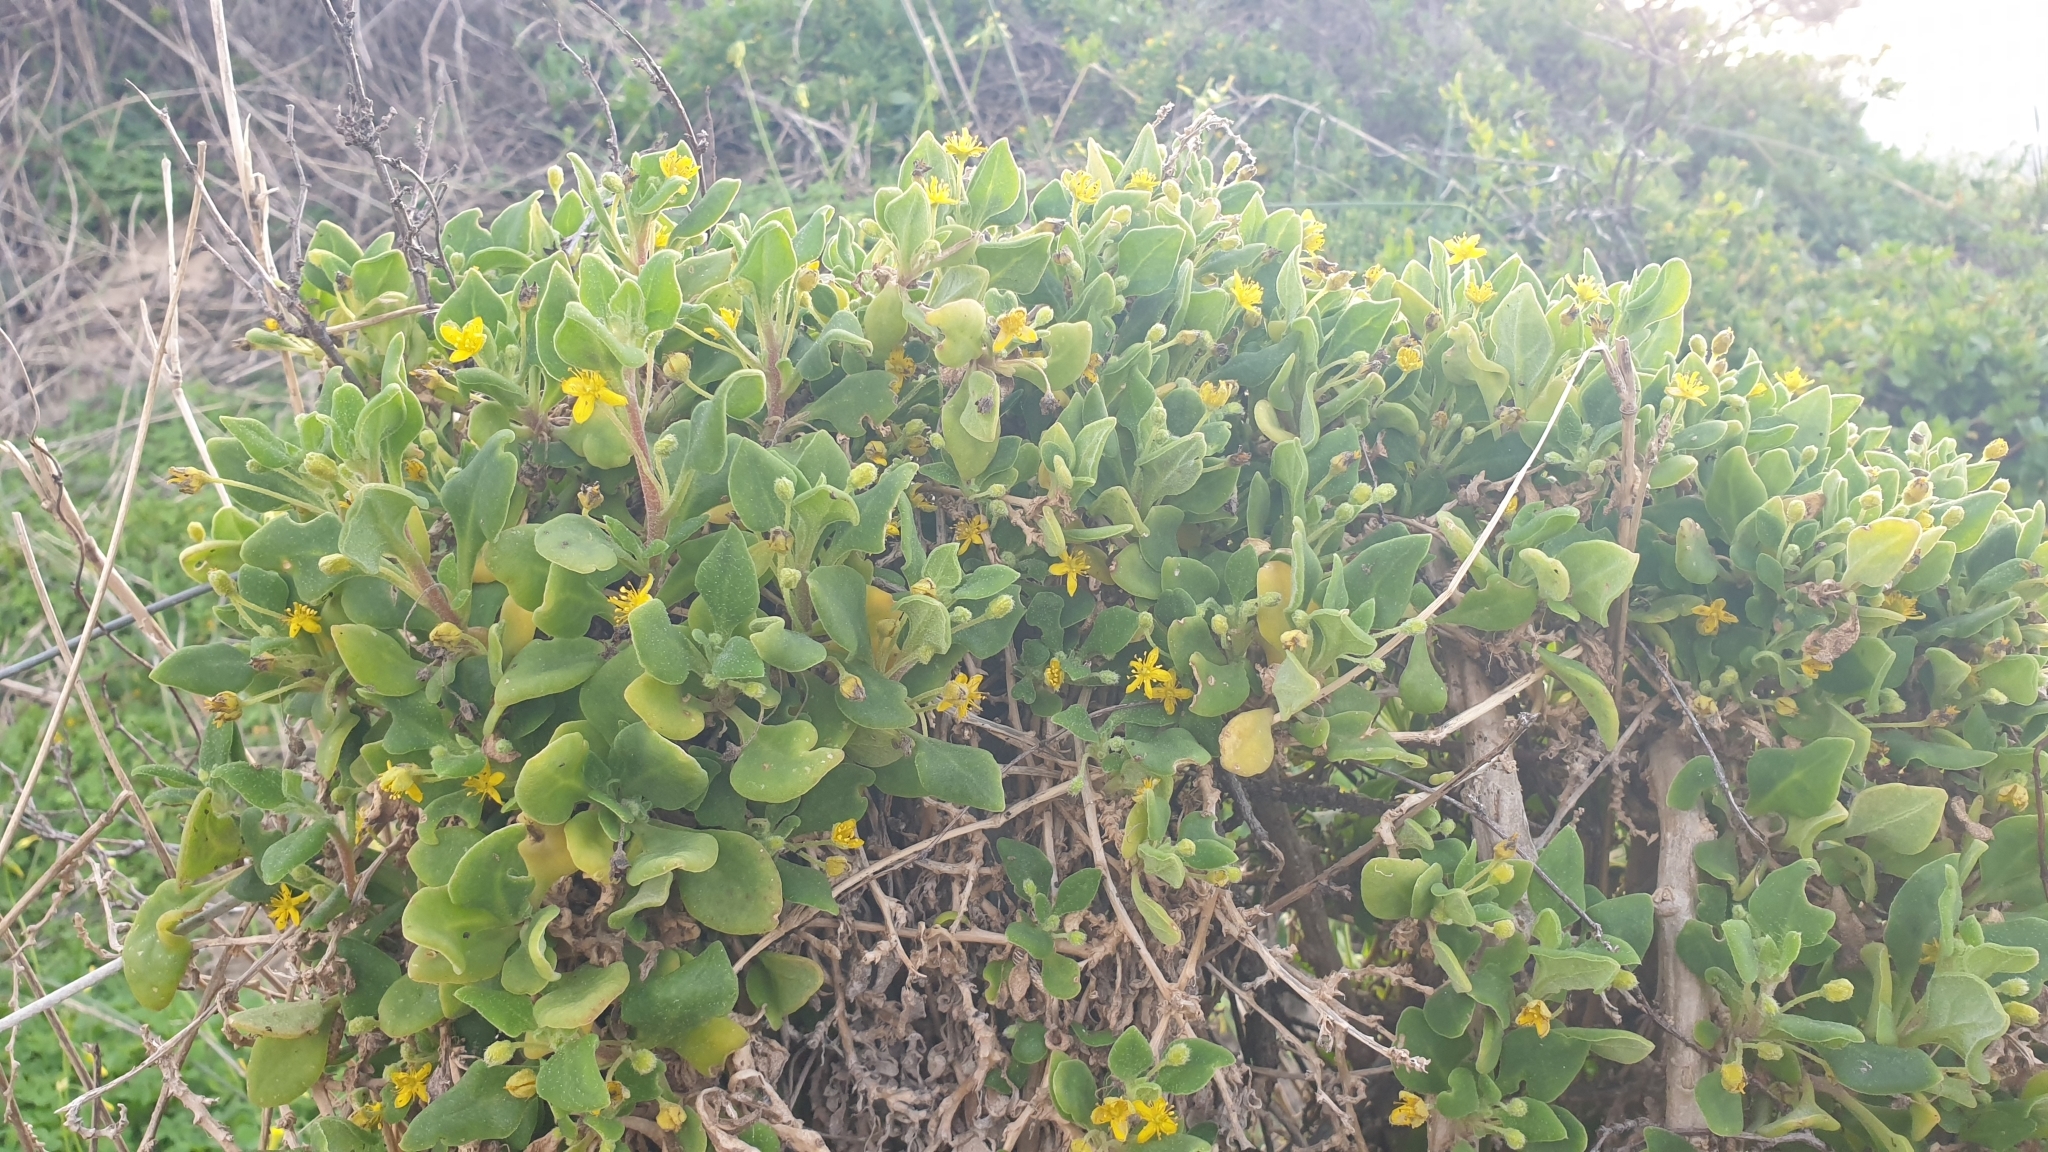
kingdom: Plantae
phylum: Tracheophyta
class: Magnoliopsida
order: Caryophyllales
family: Aizoaceae
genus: Tetragonia
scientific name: Tetragonia implexicoma
